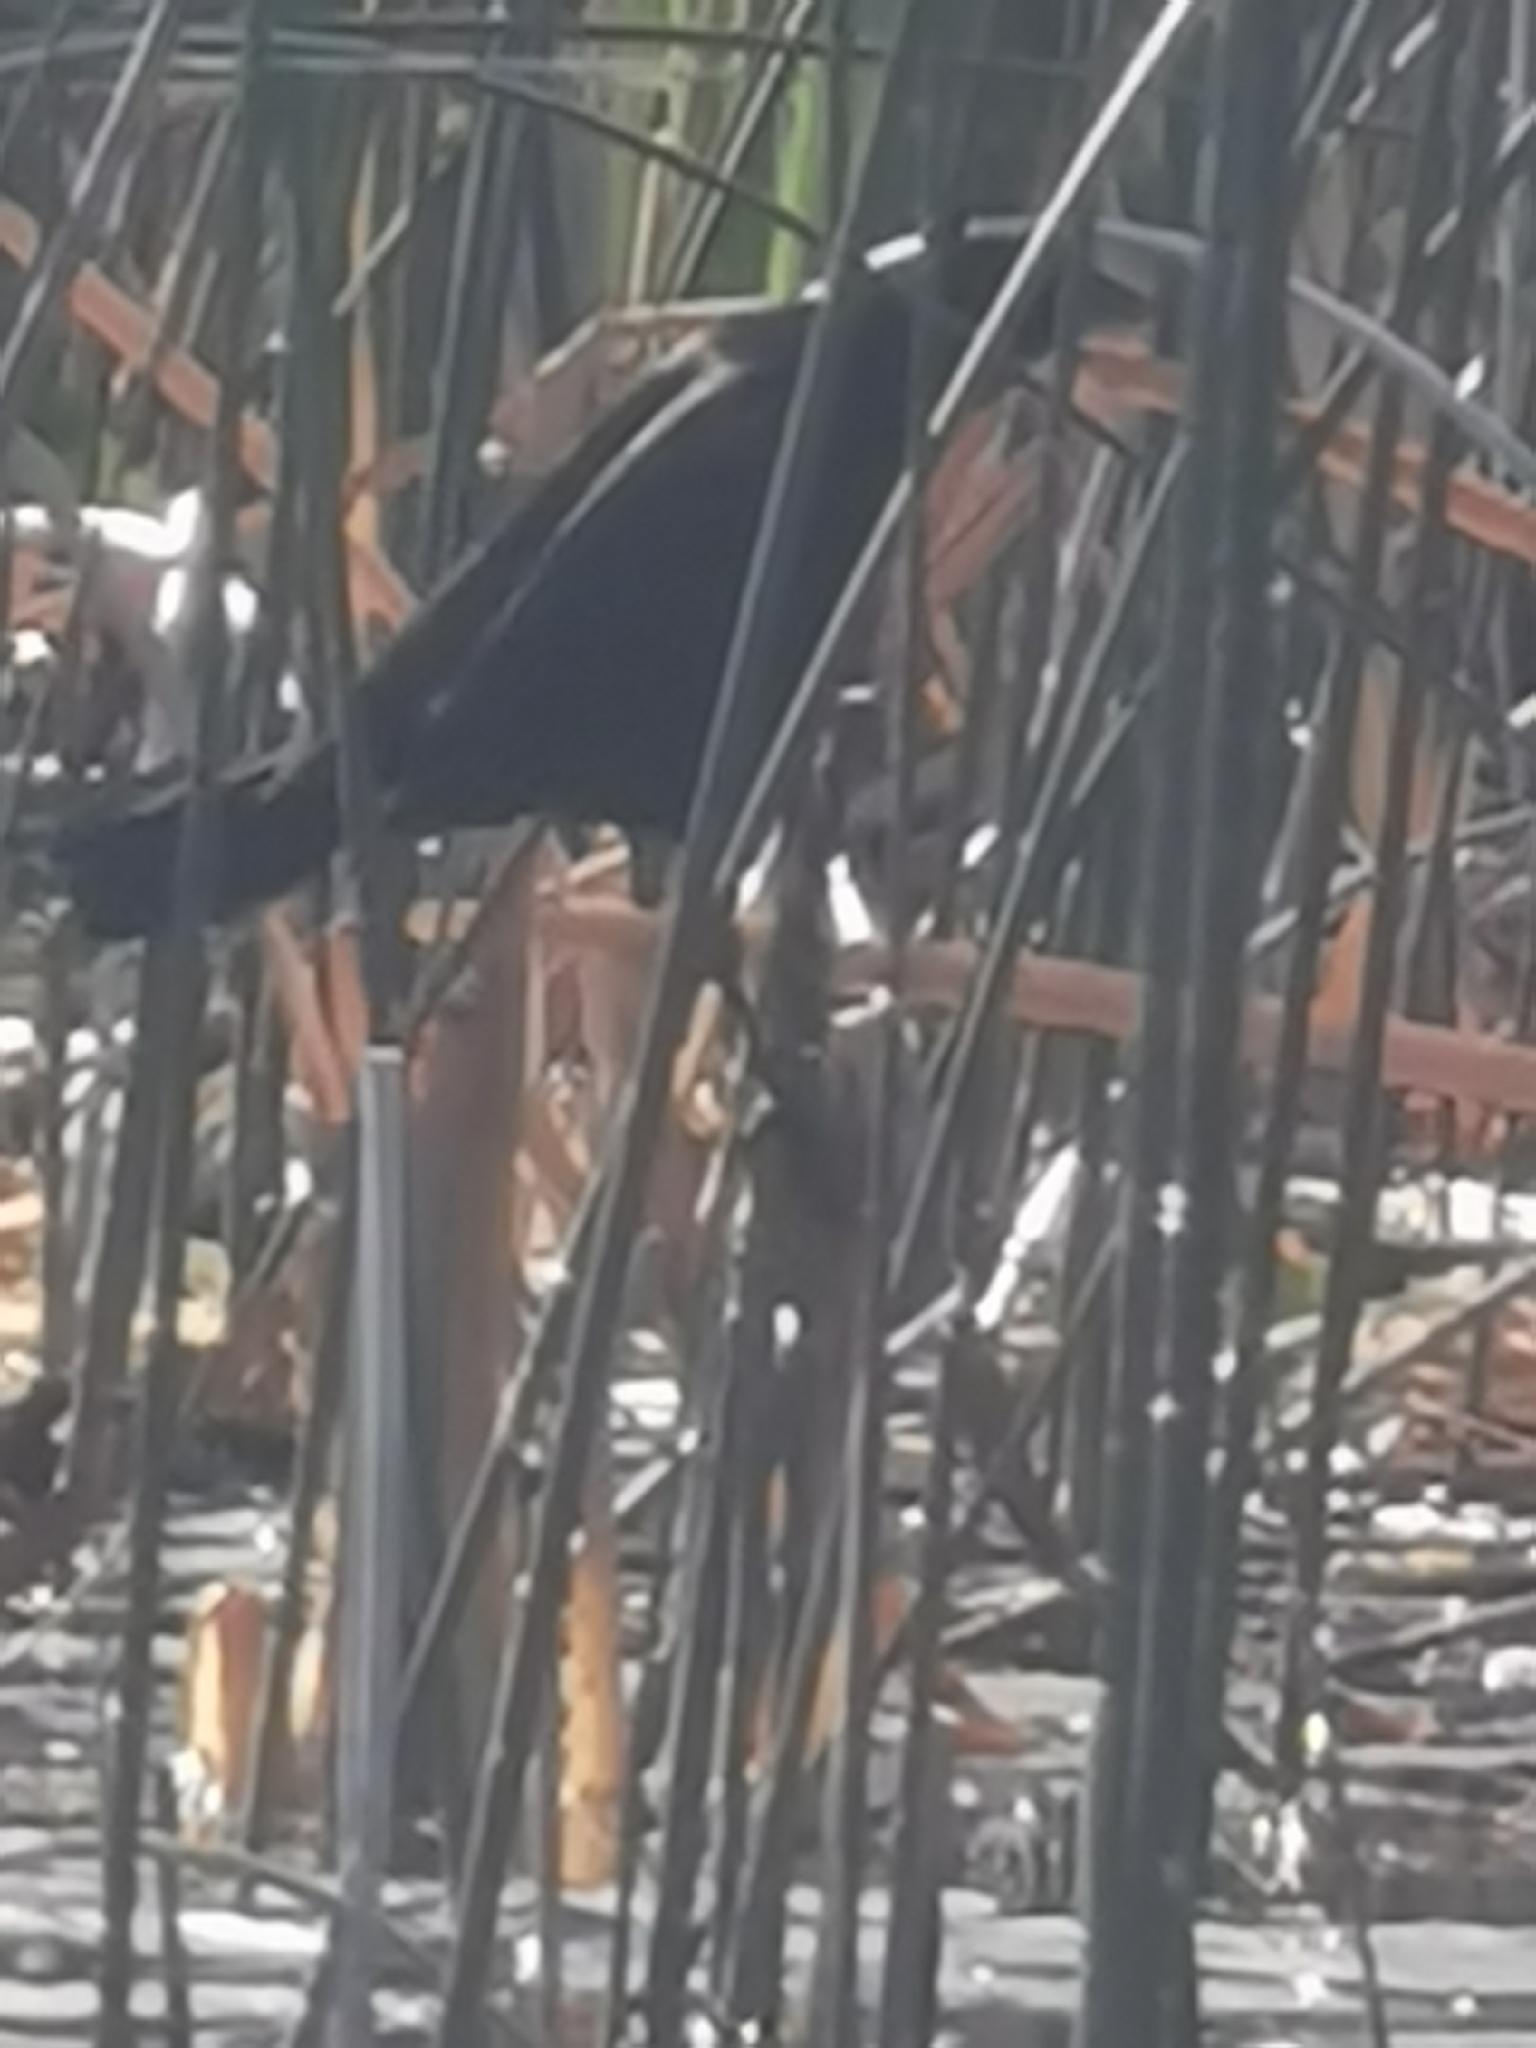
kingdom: Animalia
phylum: Chordata
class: Aves
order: Passeriformes
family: Icteridae
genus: Agelaius
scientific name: Agelaius phoeniceus
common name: Red-winged blackbird
